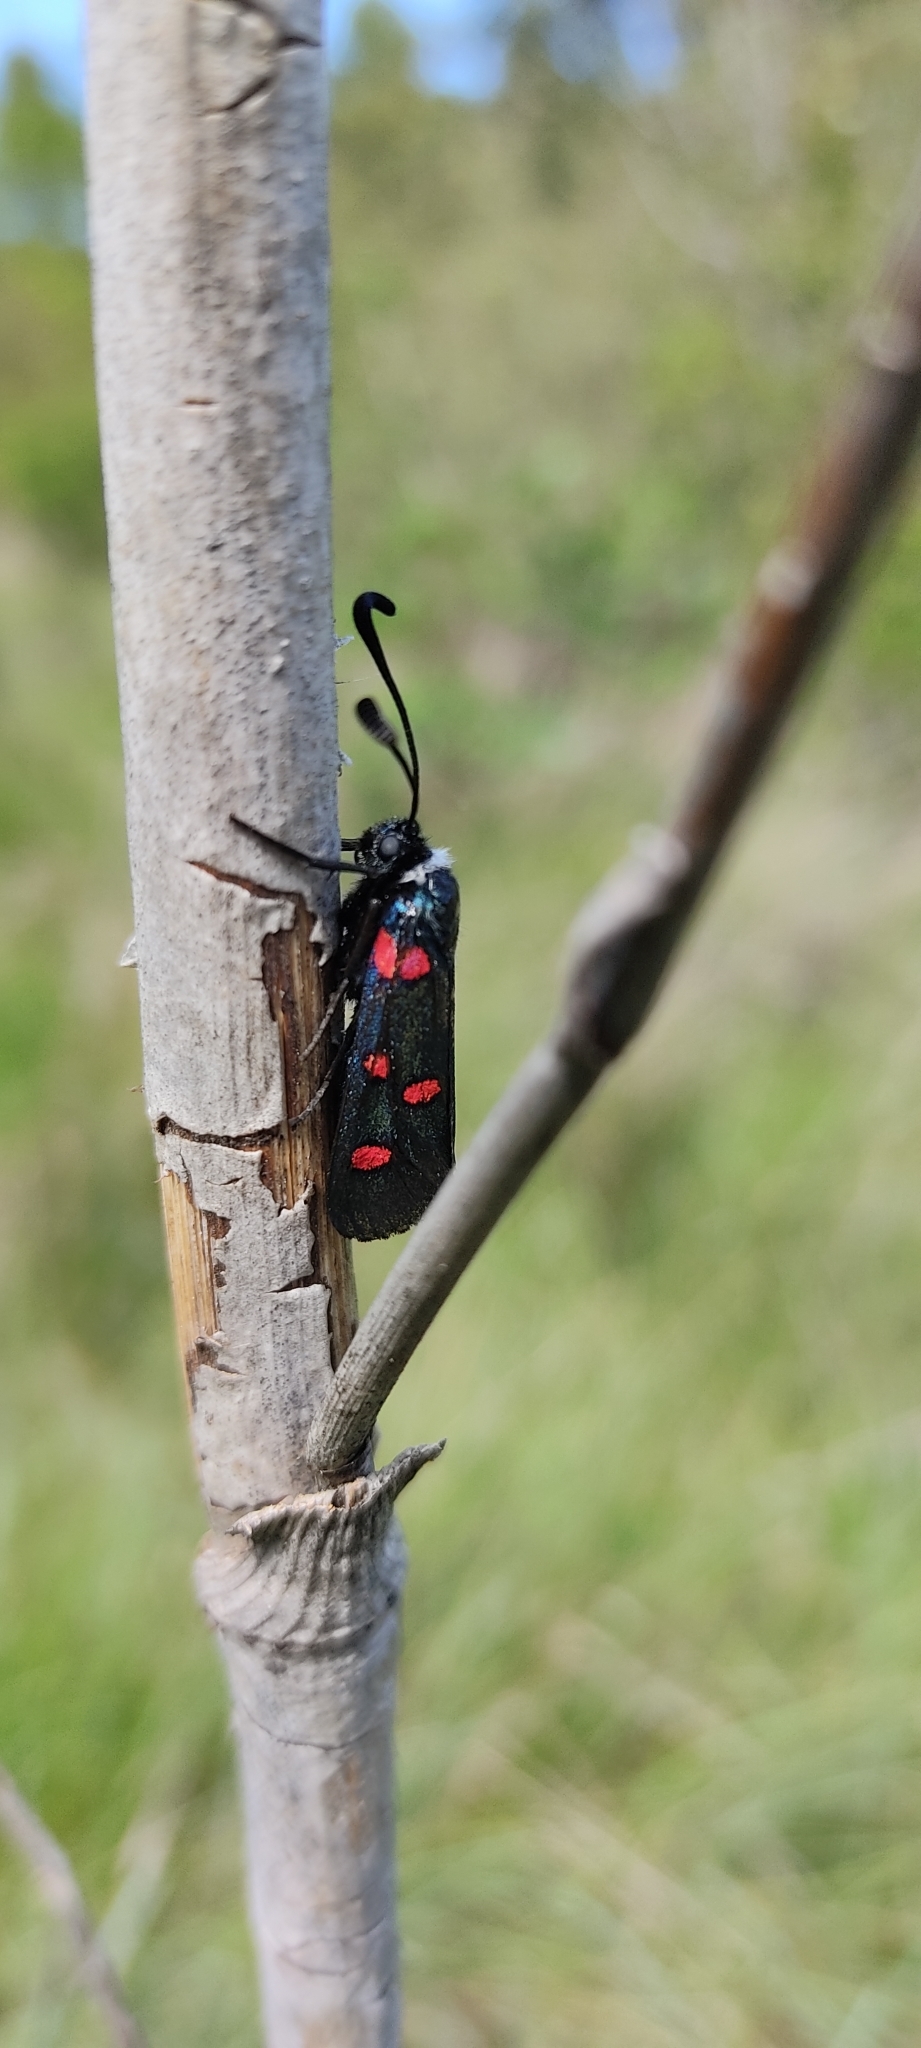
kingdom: Animalia
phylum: Arthropoda
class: Insecta
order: Lepidoptera
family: Zygaenidae
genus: Zygaena
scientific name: Zygaena lavandulae
